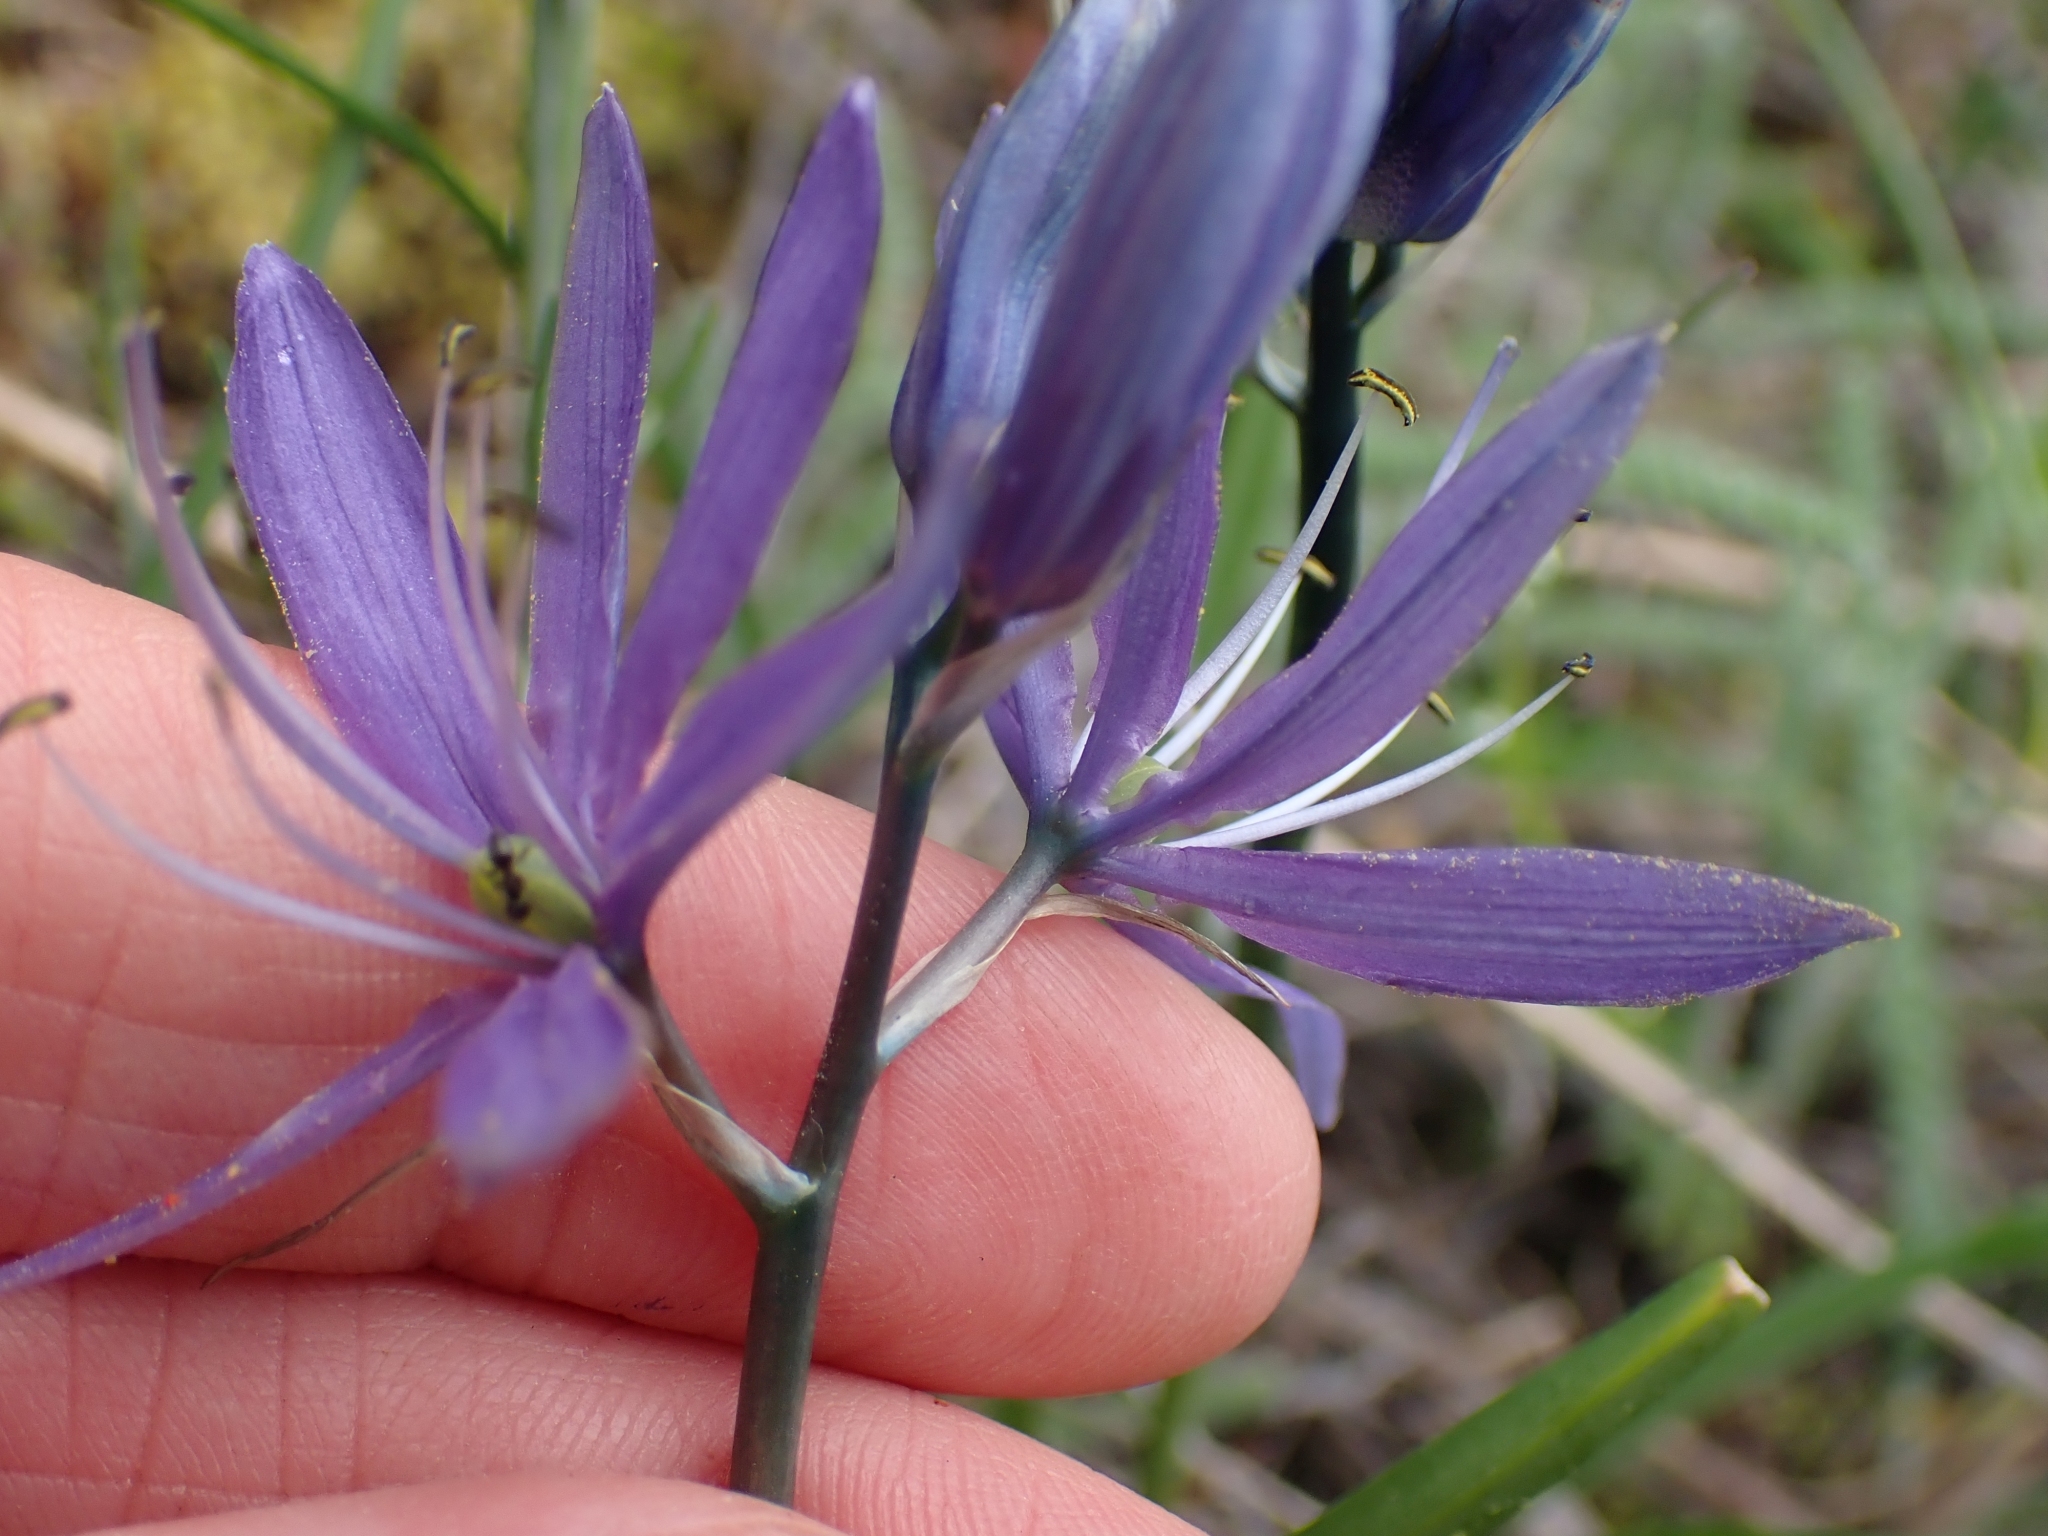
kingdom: Plantae
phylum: Tracheophyta
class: Liliopsida
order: Asparagales
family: Asparagaceae
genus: Camassia
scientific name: Camassia quamash
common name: Common camas
